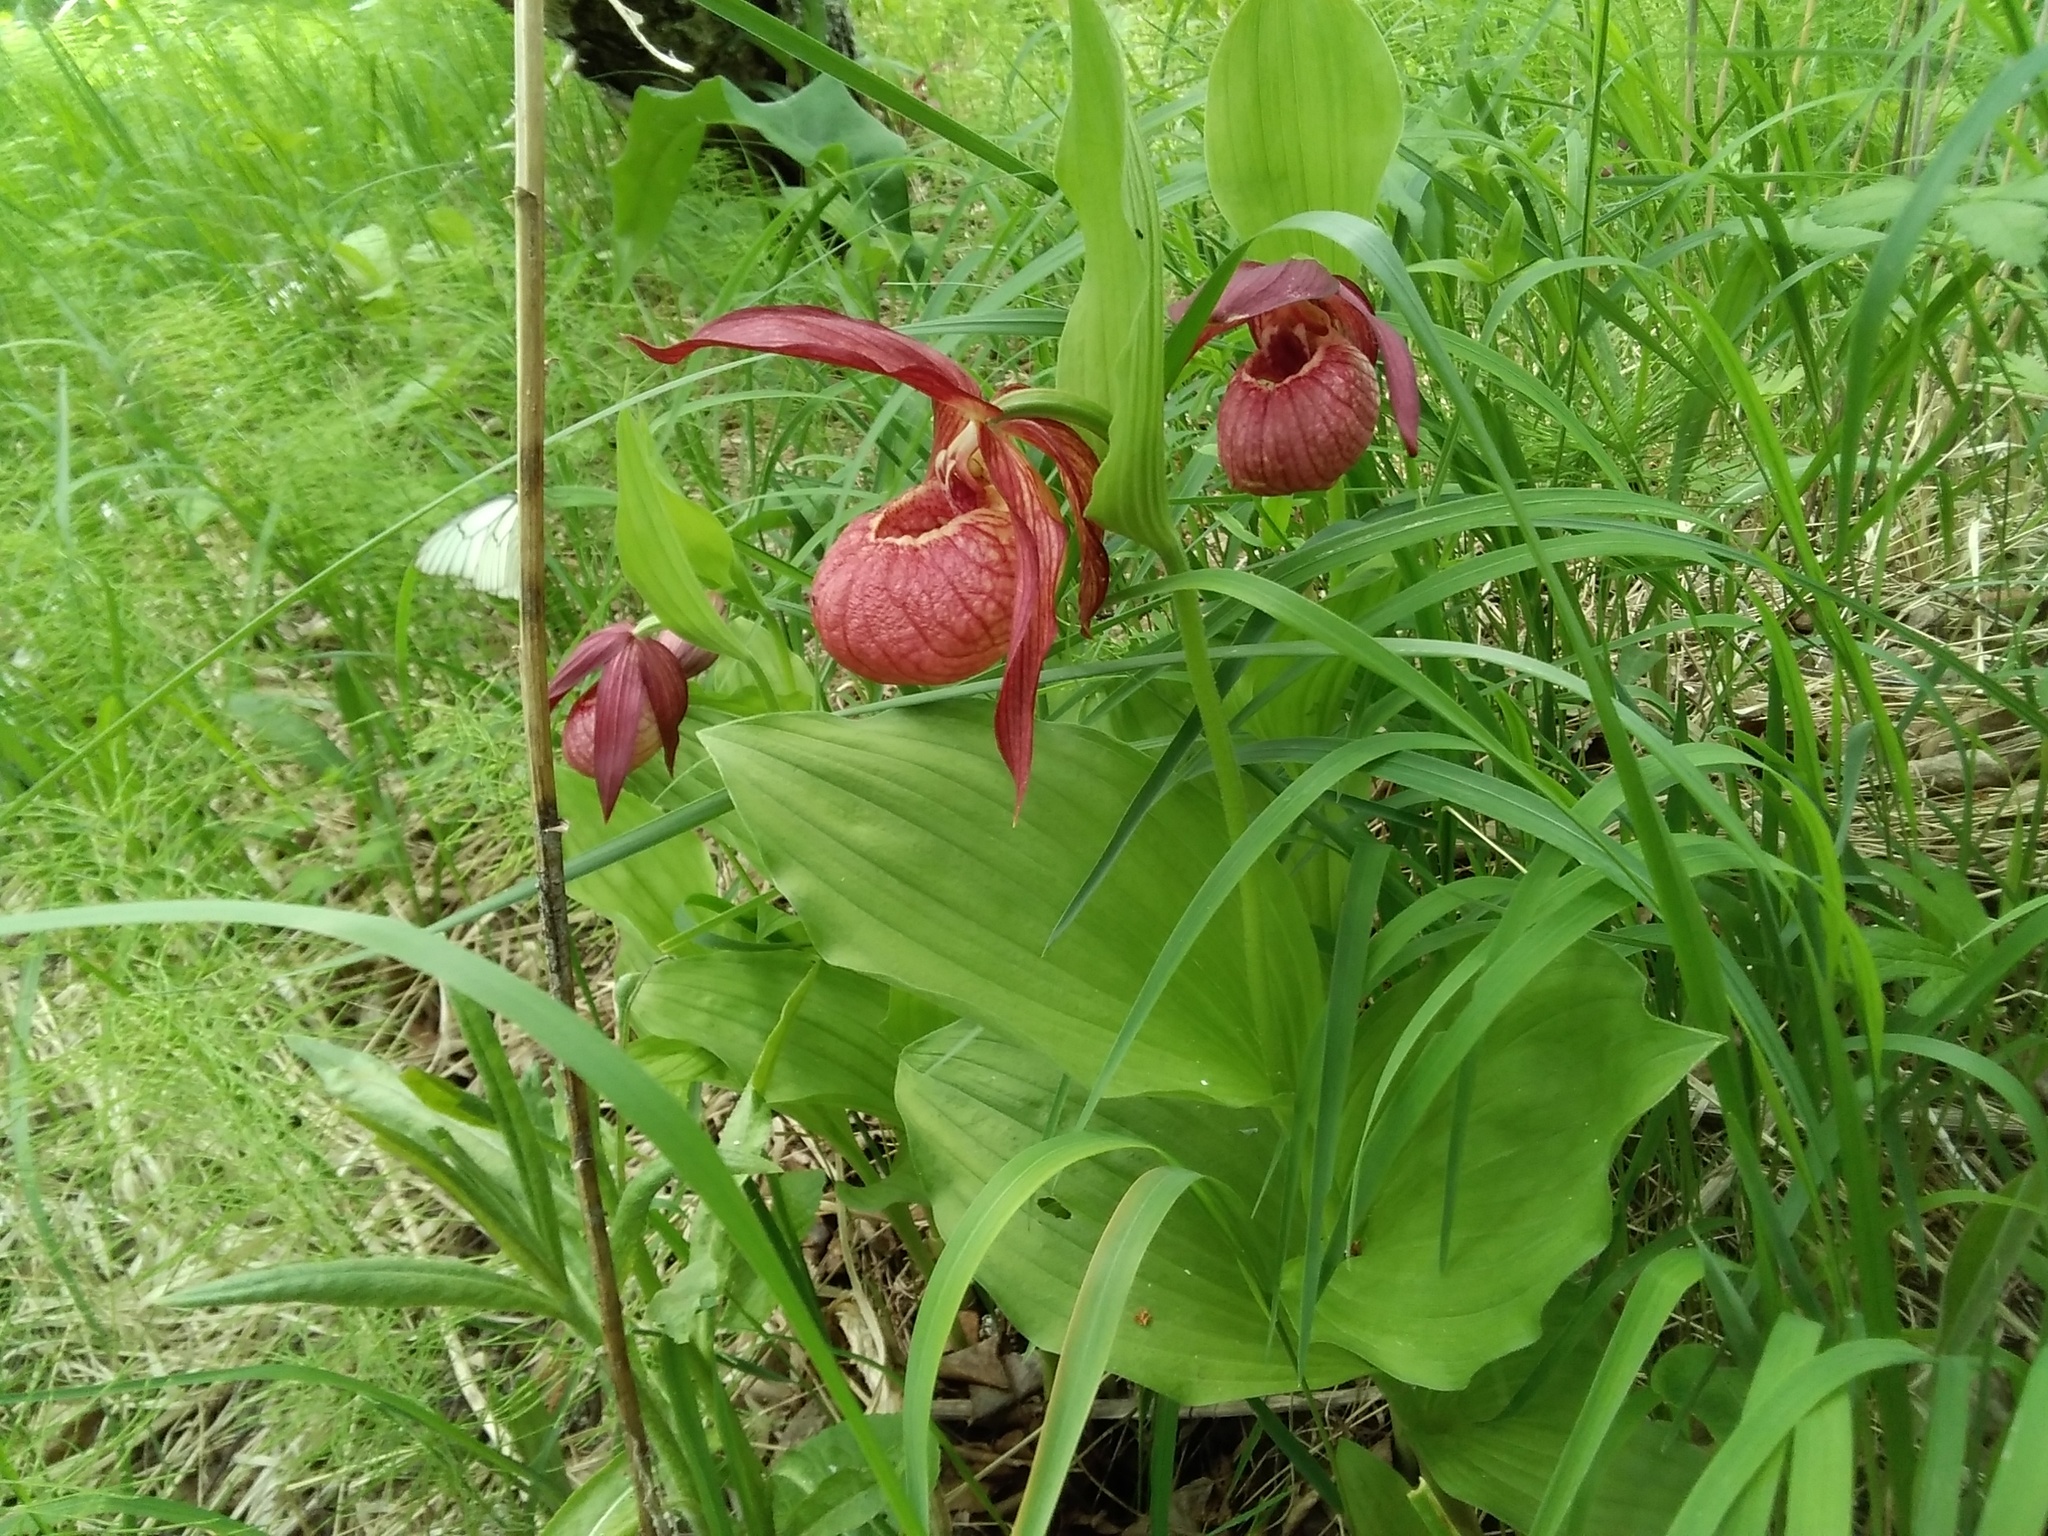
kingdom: Plantae
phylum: Tracheophyta
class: Liliopsida
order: Asparagales
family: Orchidaceae
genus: Cypripedium
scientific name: Cypripedium ventricosum
